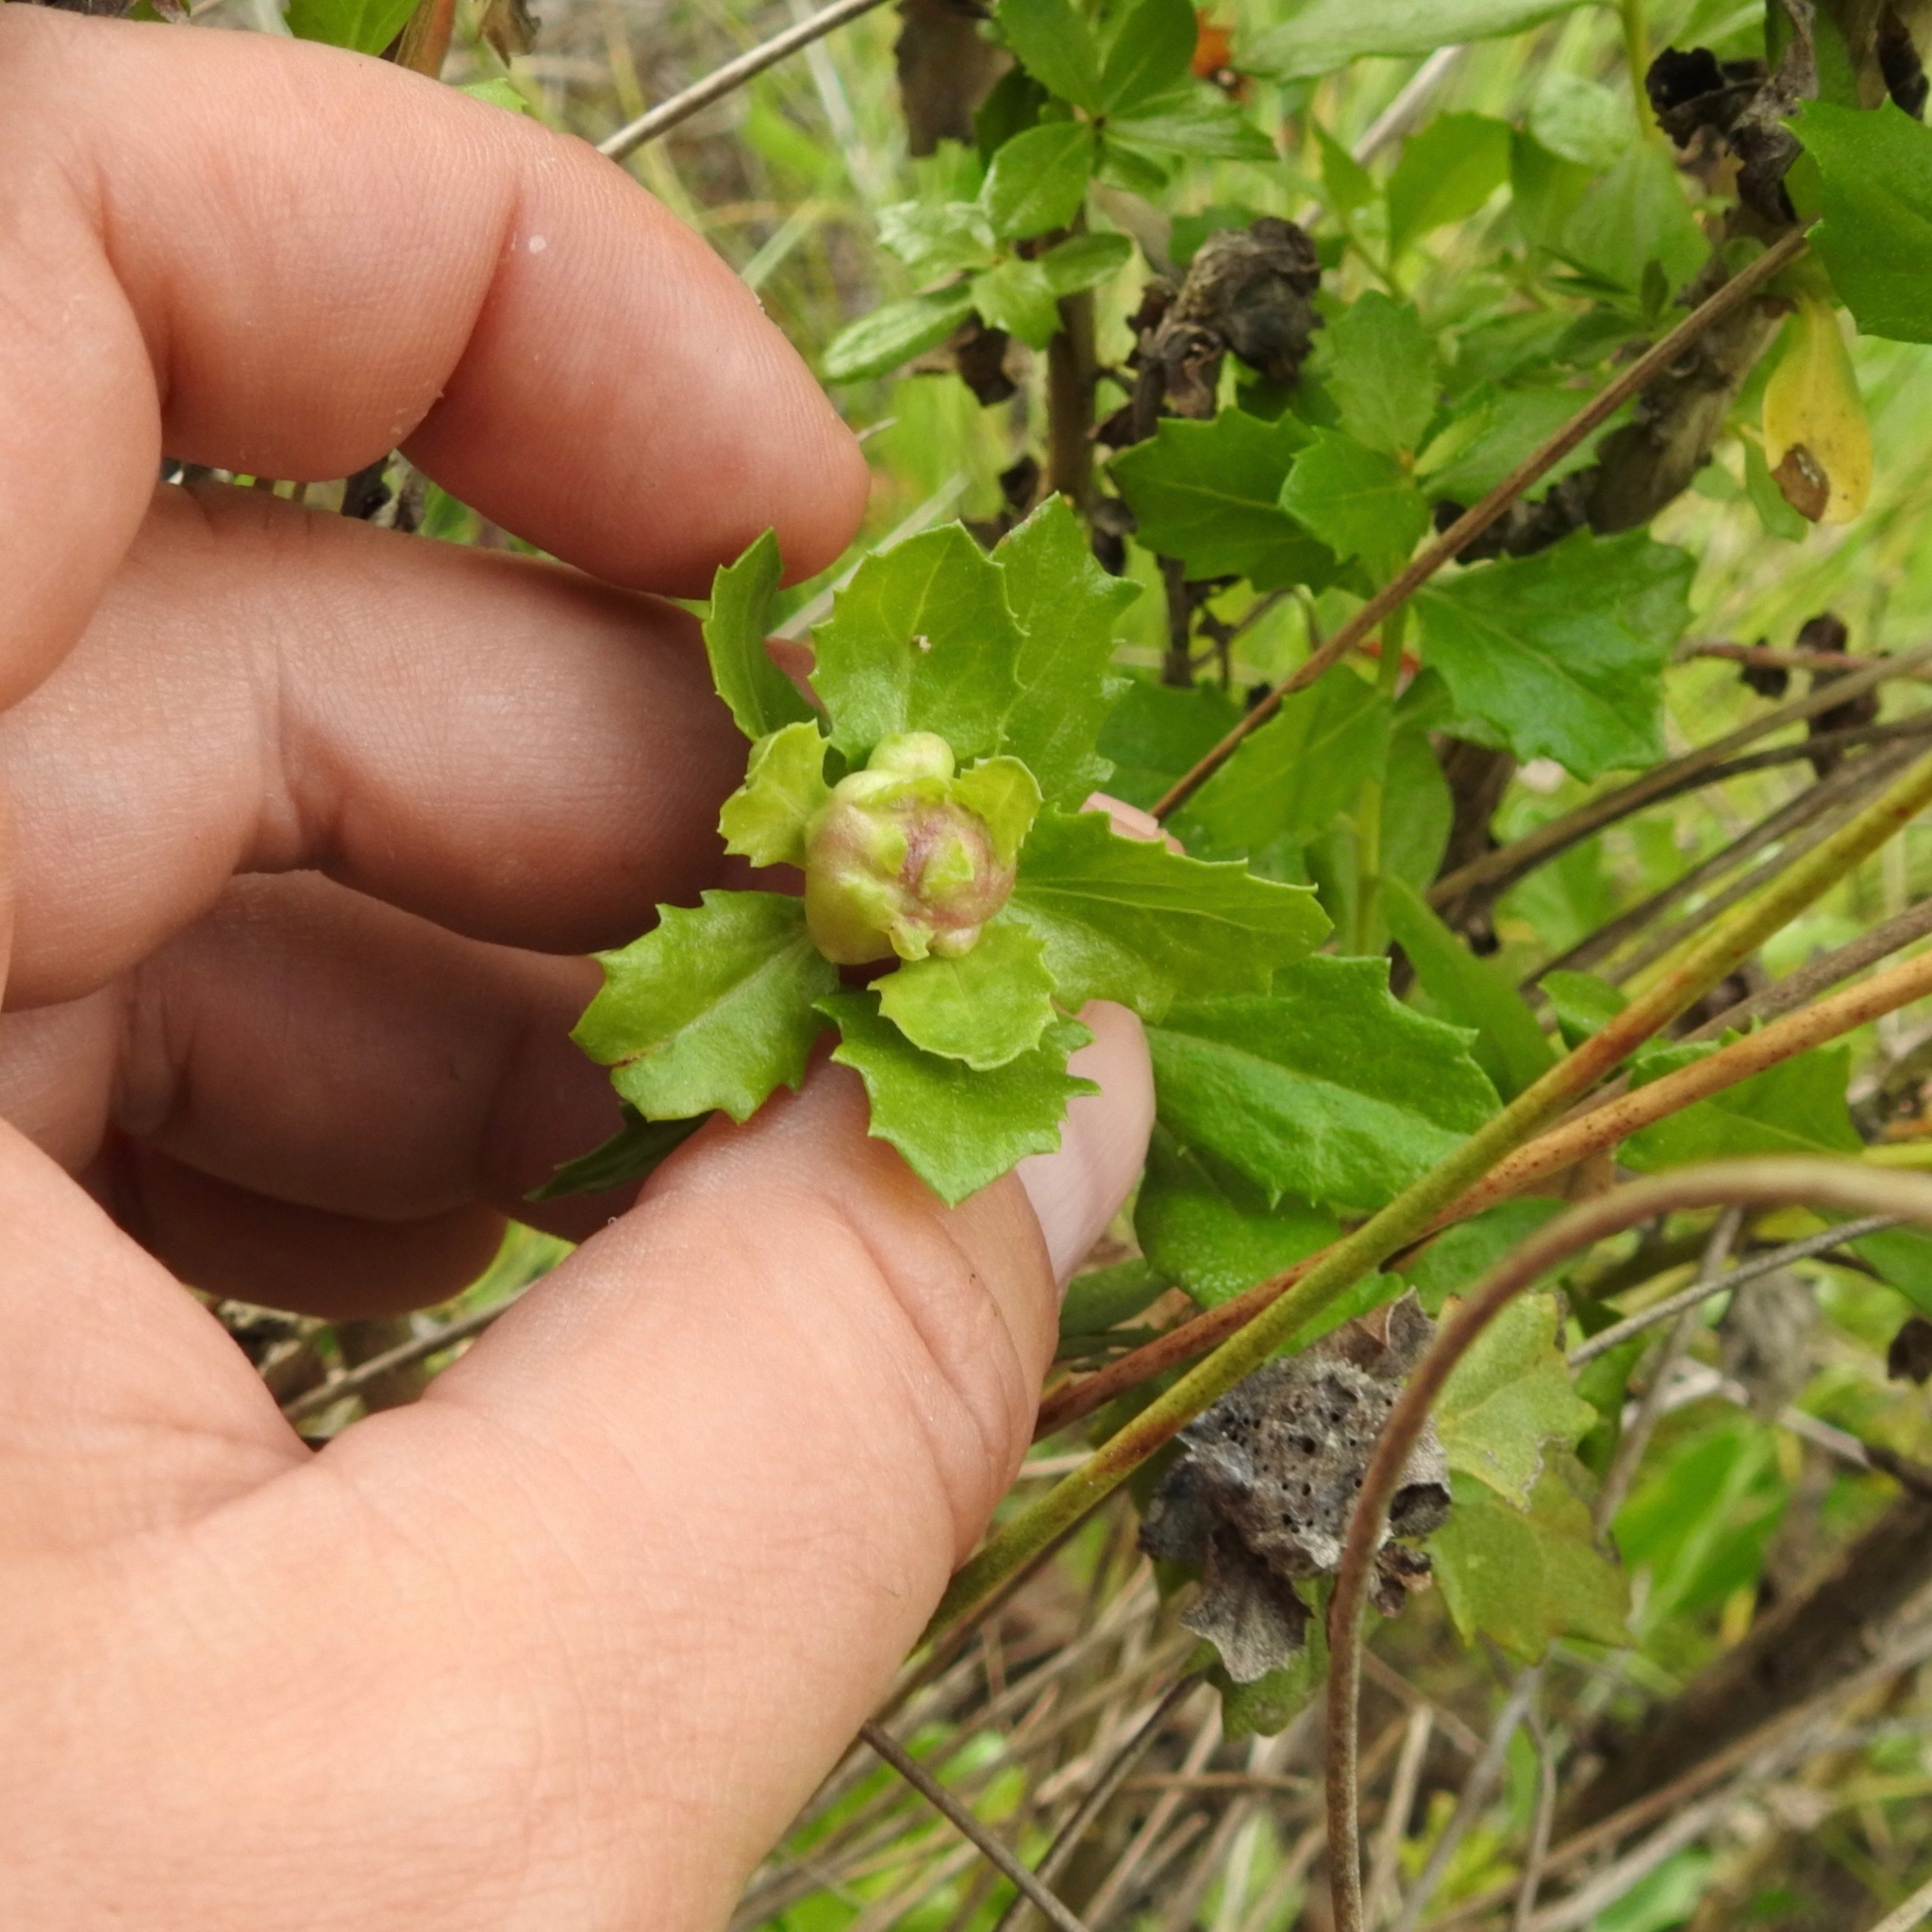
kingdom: Animalia
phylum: Arthropoda
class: Insecta
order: Diptera
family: Cecidomyiidae
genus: Rhopalomyia
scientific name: Rhopalomyia californica
